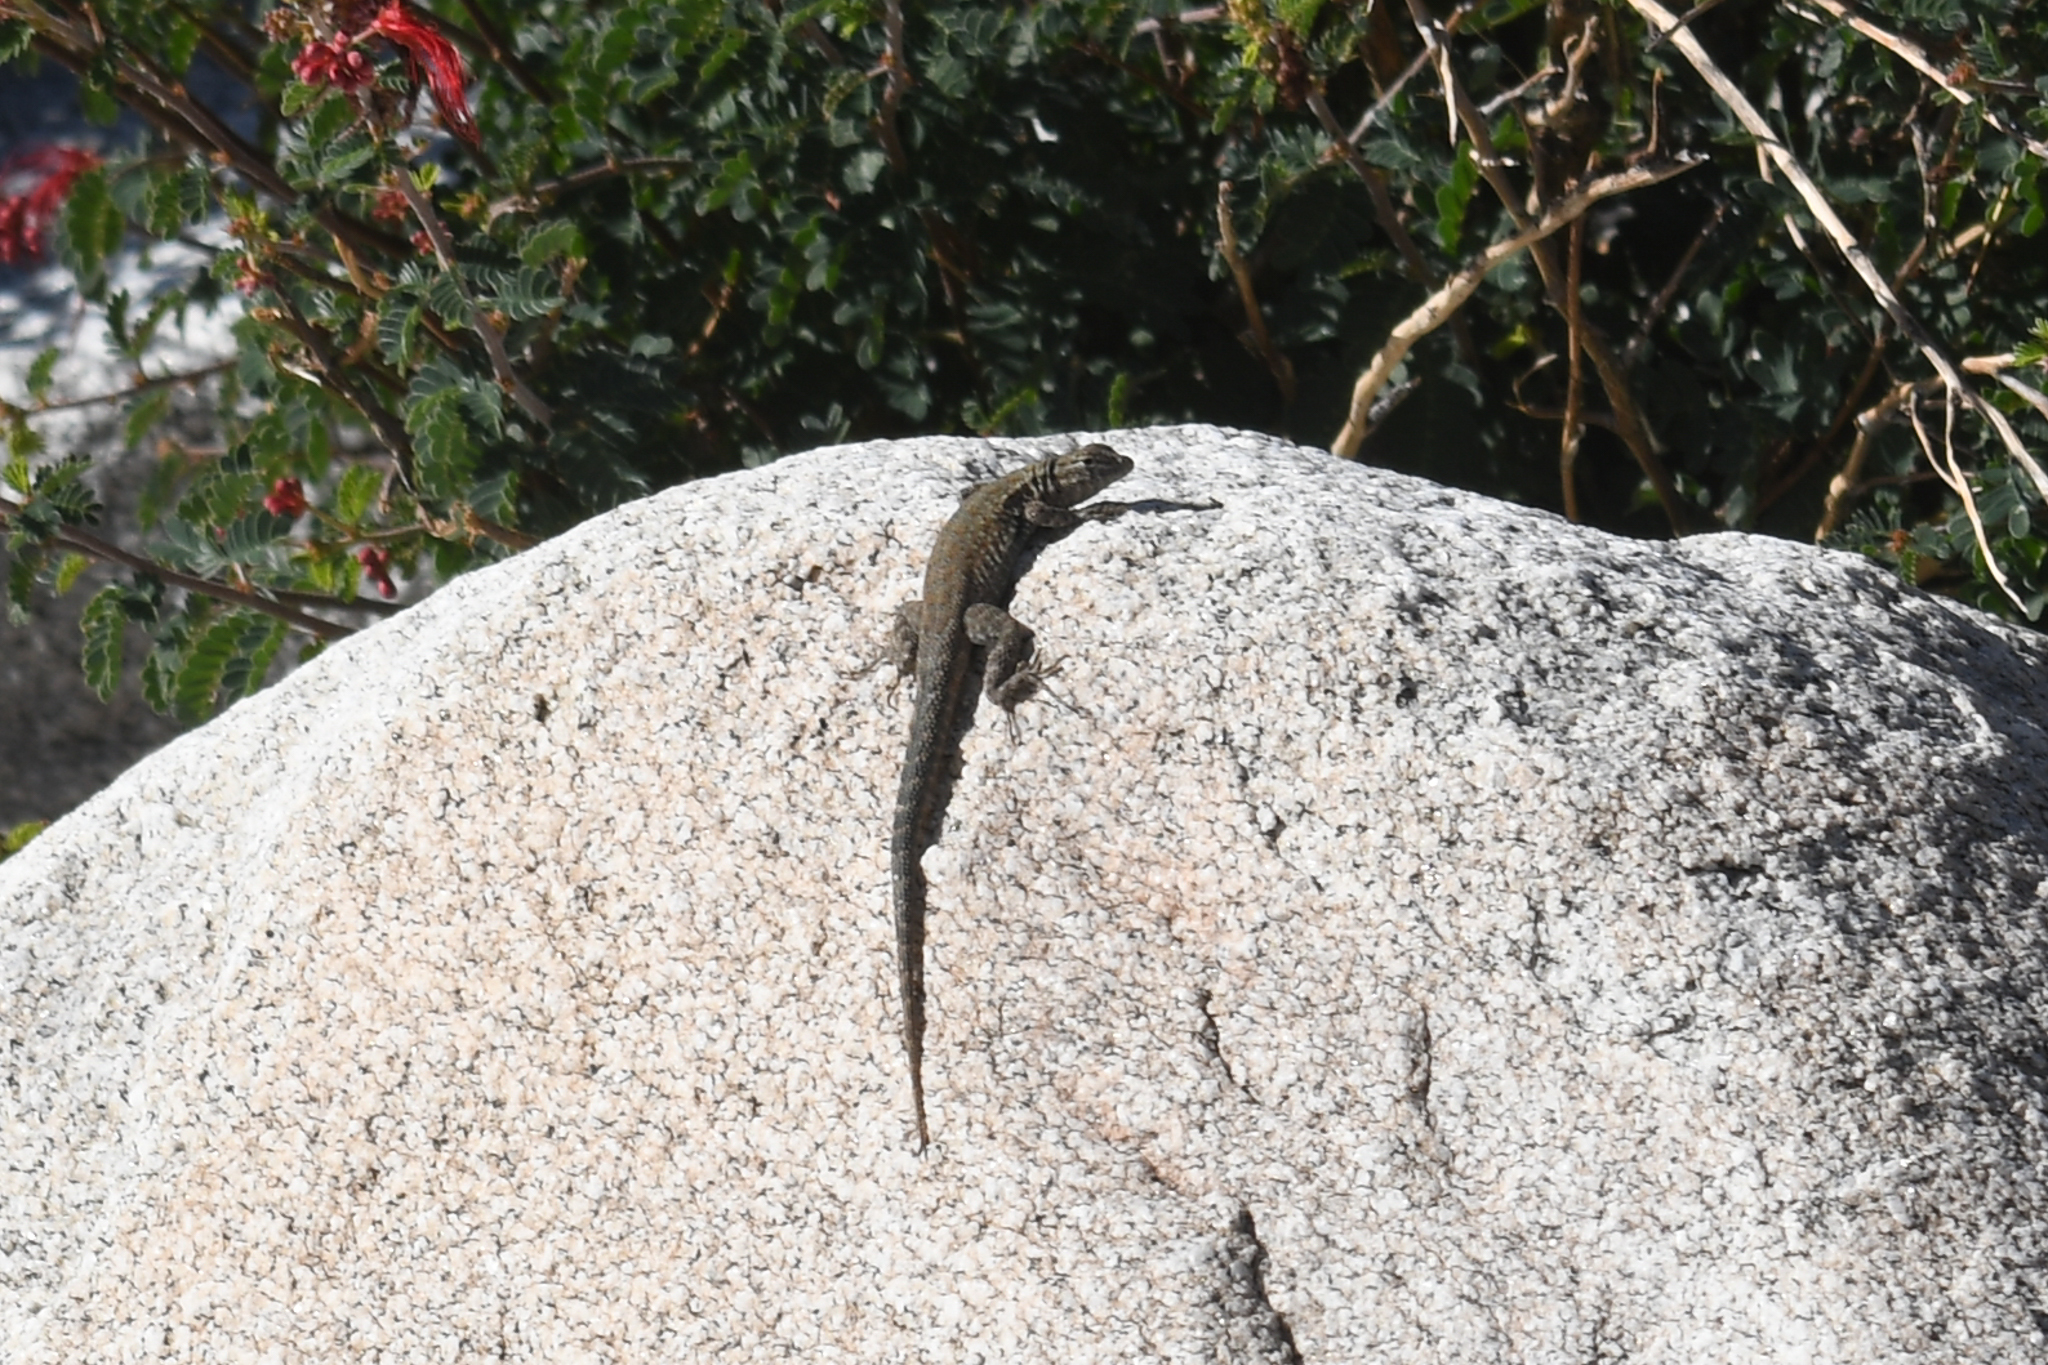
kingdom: Animalia
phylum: Chordata
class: Squamata
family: Phrynosomatidae
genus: Uta
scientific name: Uta stansburiana
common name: Side-blotched lizard
